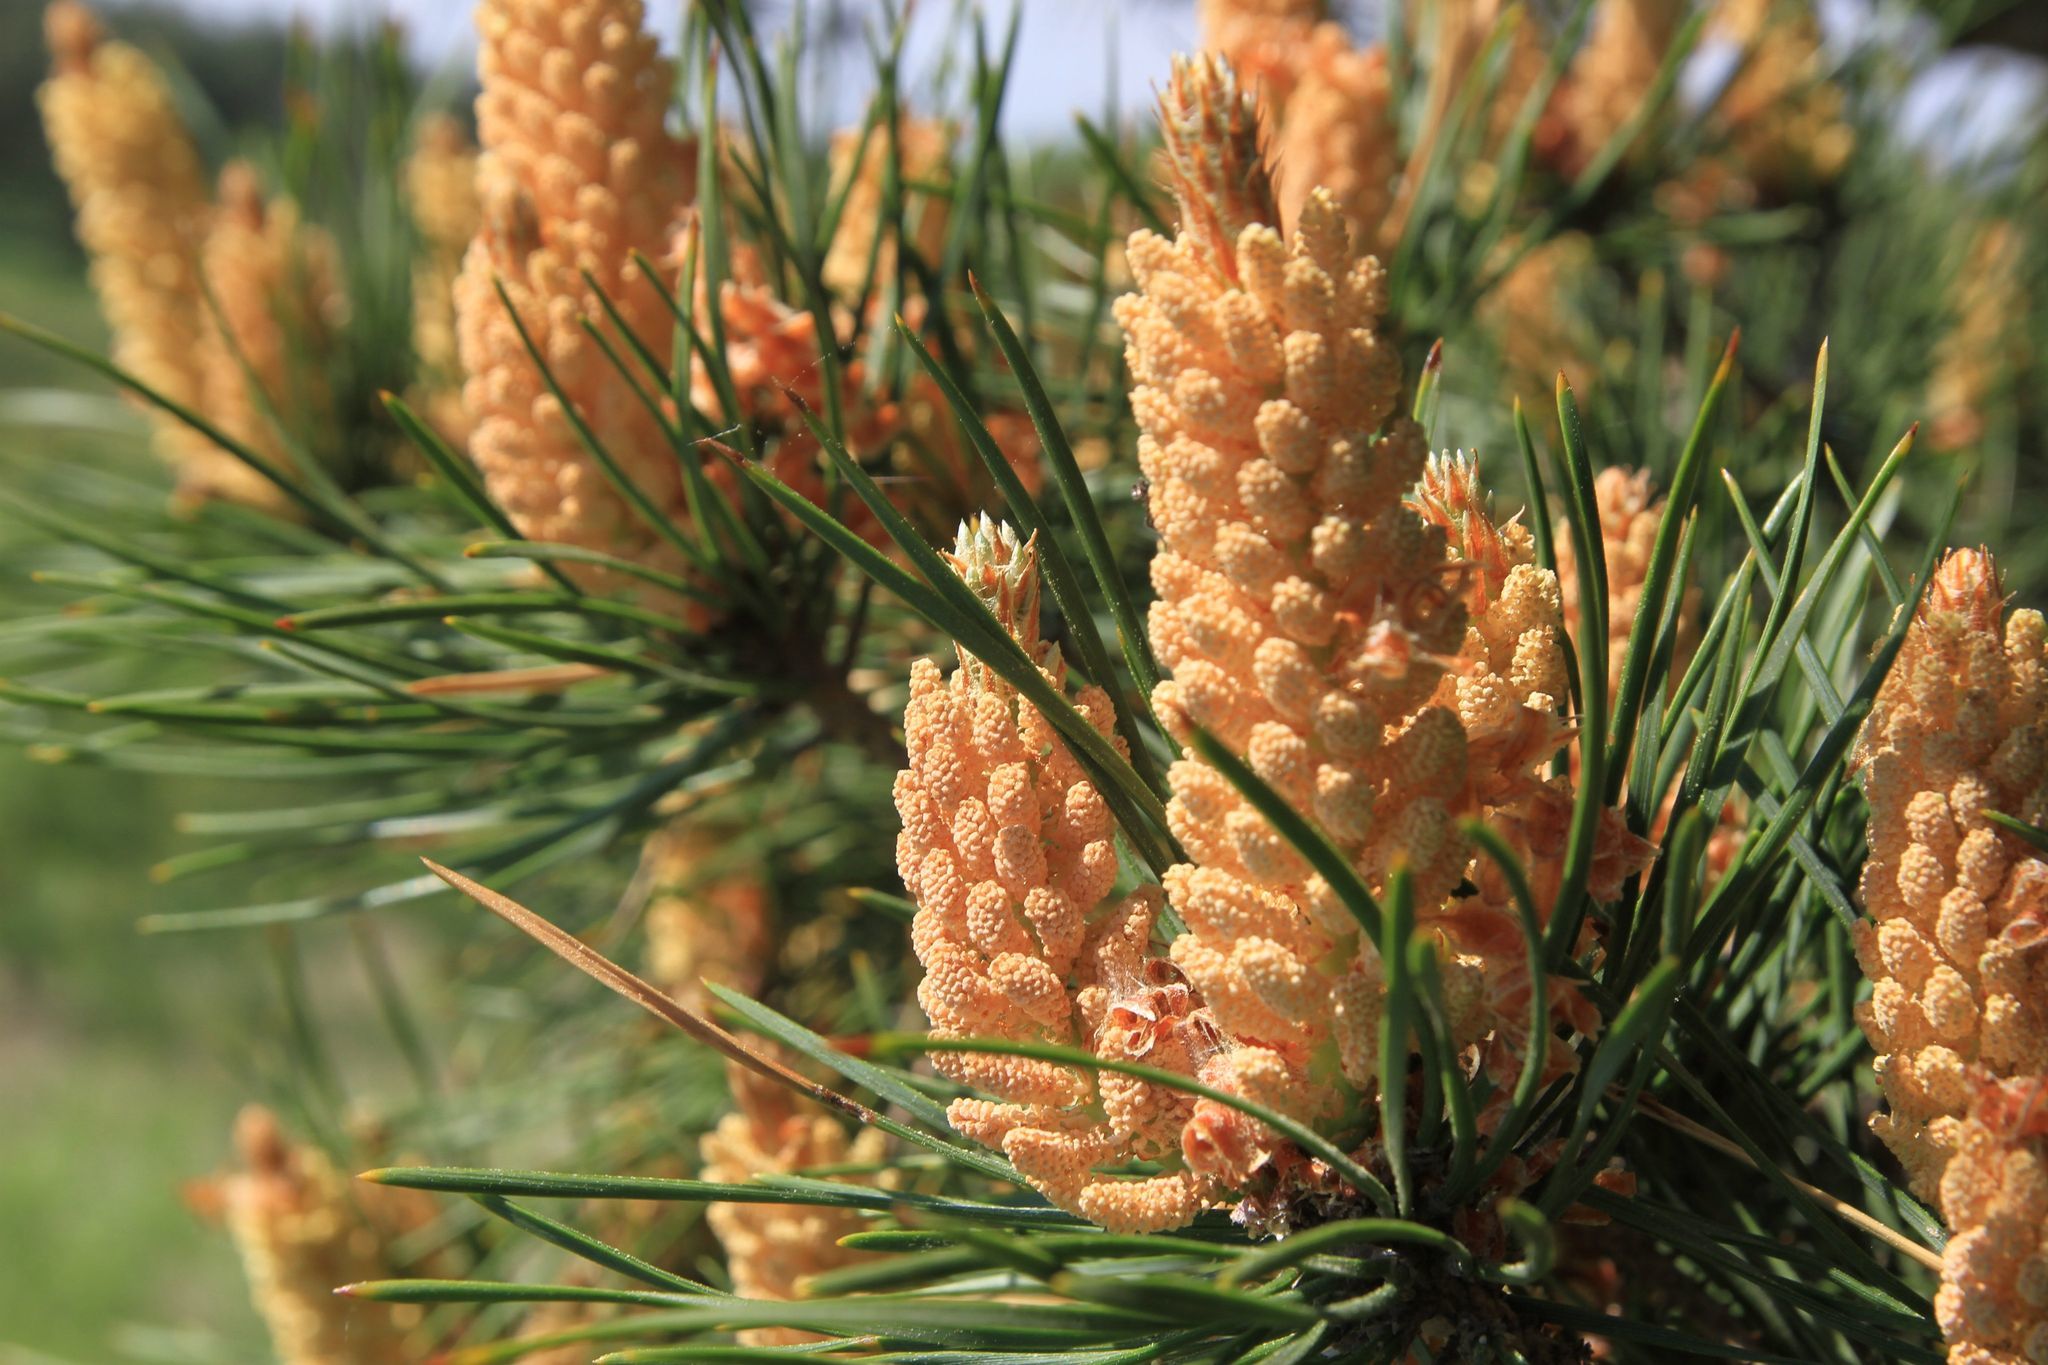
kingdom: Plantae
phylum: Tracheophyta
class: Pinopsida
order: Pinales
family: Pinaceae
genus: Pinus
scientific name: Pinus sylvestris
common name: Scots pine
